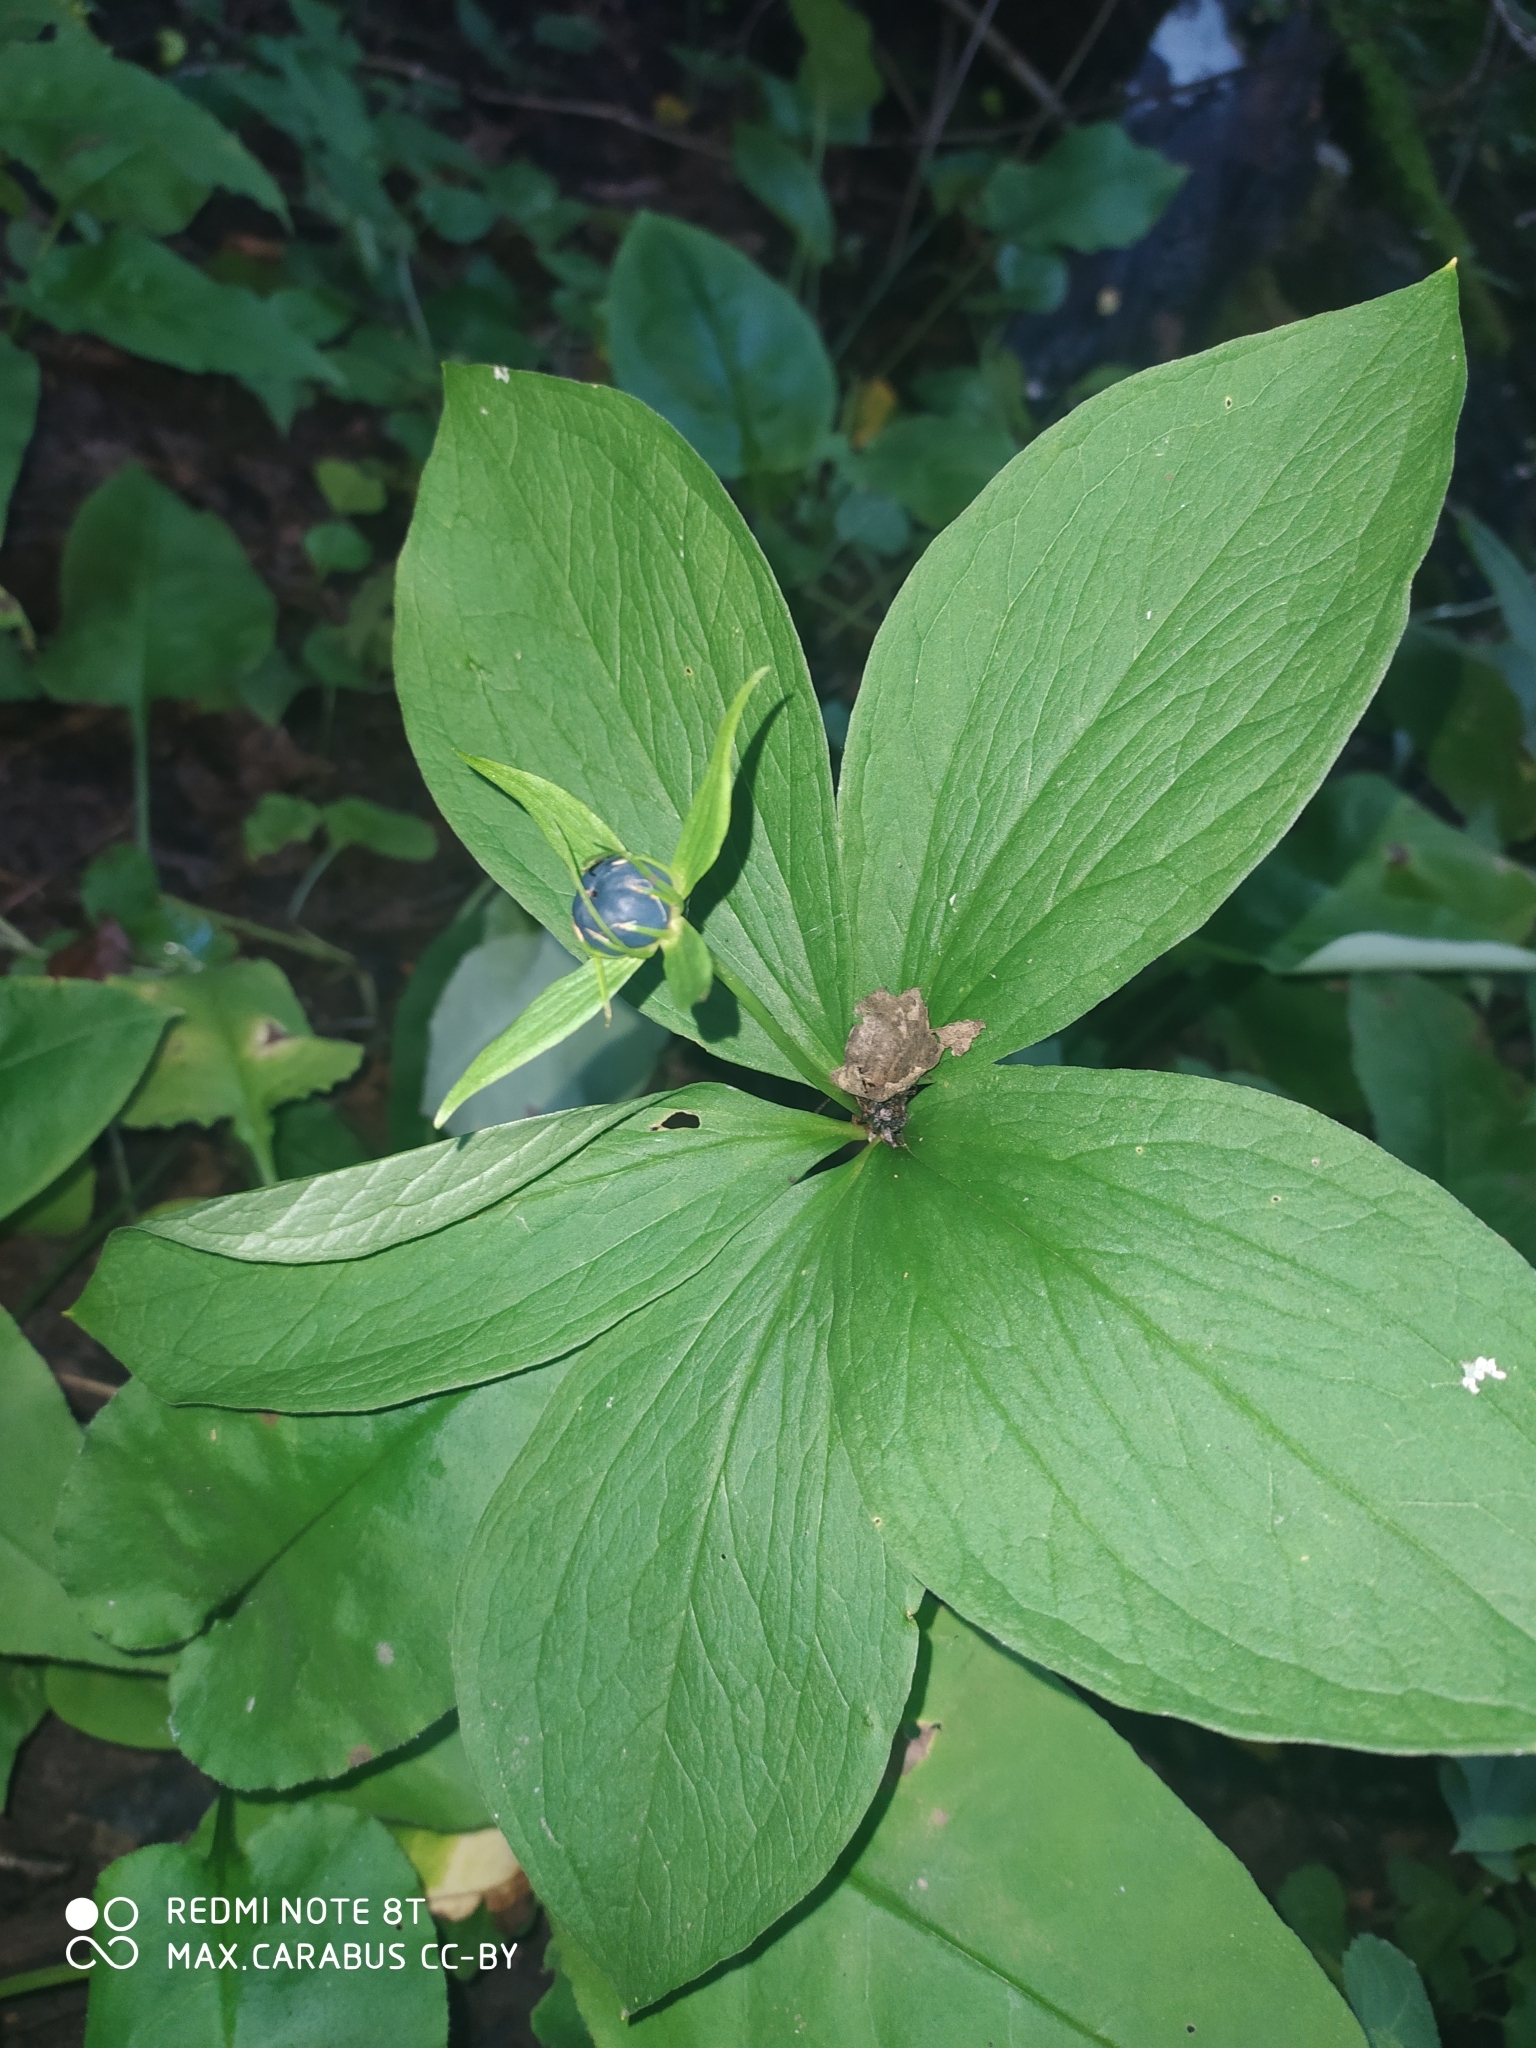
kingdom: Plantae
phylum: Tracheophyta
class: Liliopsida
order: Liliales
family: Melanthiaceae
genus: Paris
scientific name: Paris quadrifolia
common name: Herb-paris
